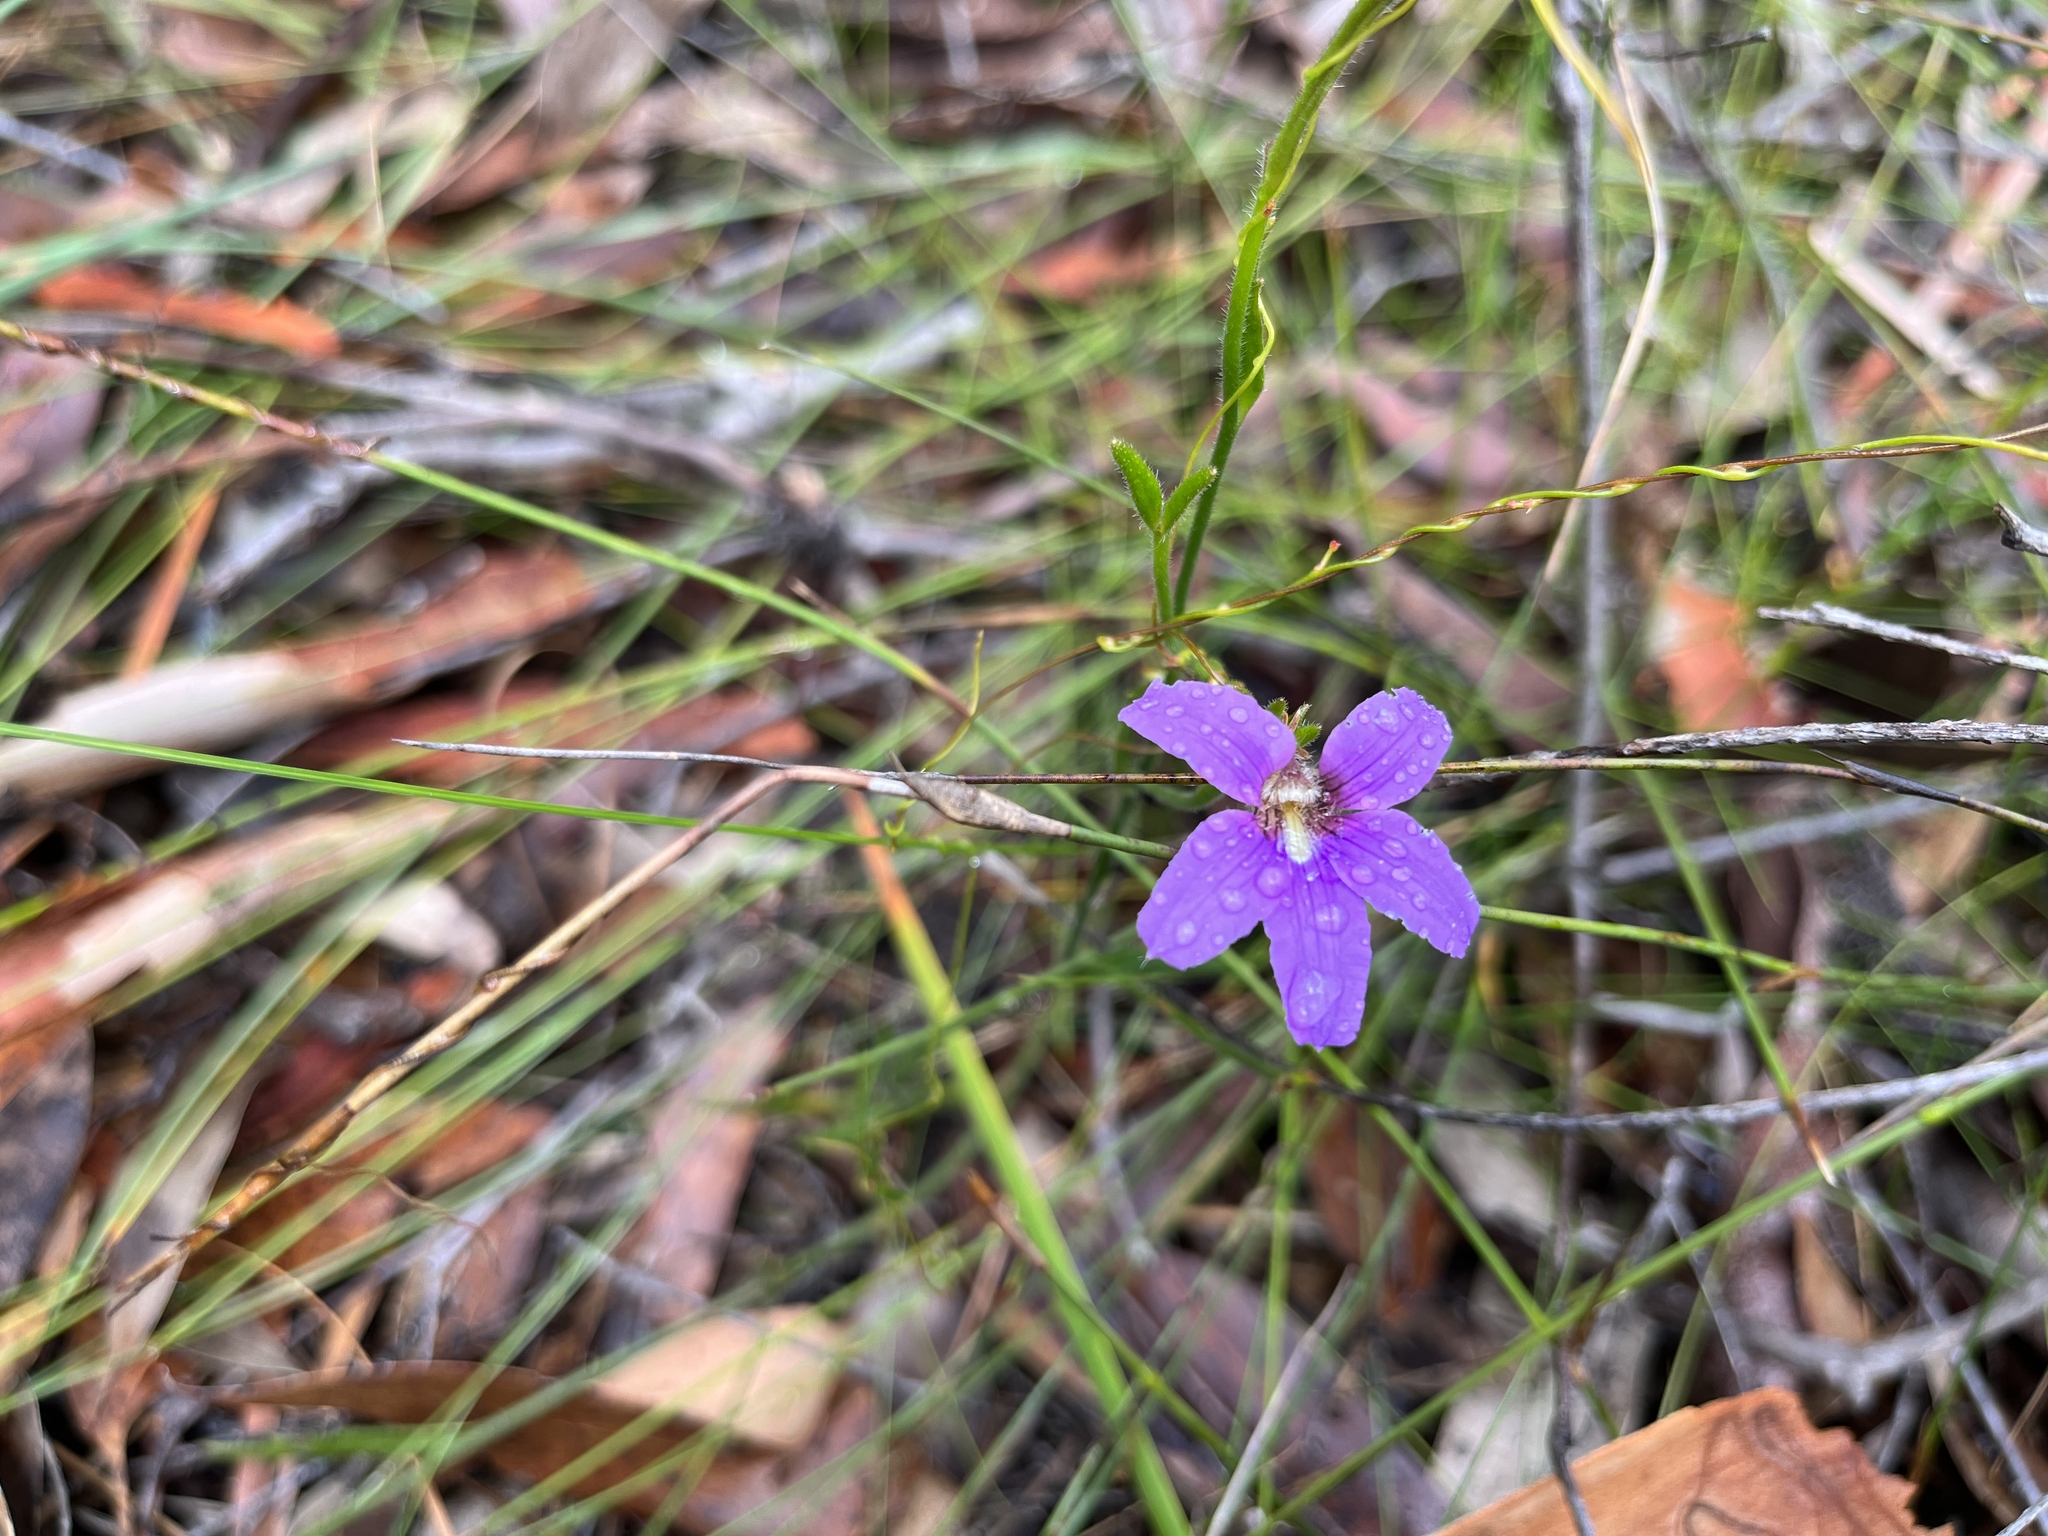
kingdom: Plantae
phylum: Tracheophyta
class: Magnoliopsida
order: Asterales
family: Goodeniaceae
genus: Scaevola
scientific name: Scaevola ramosissima
